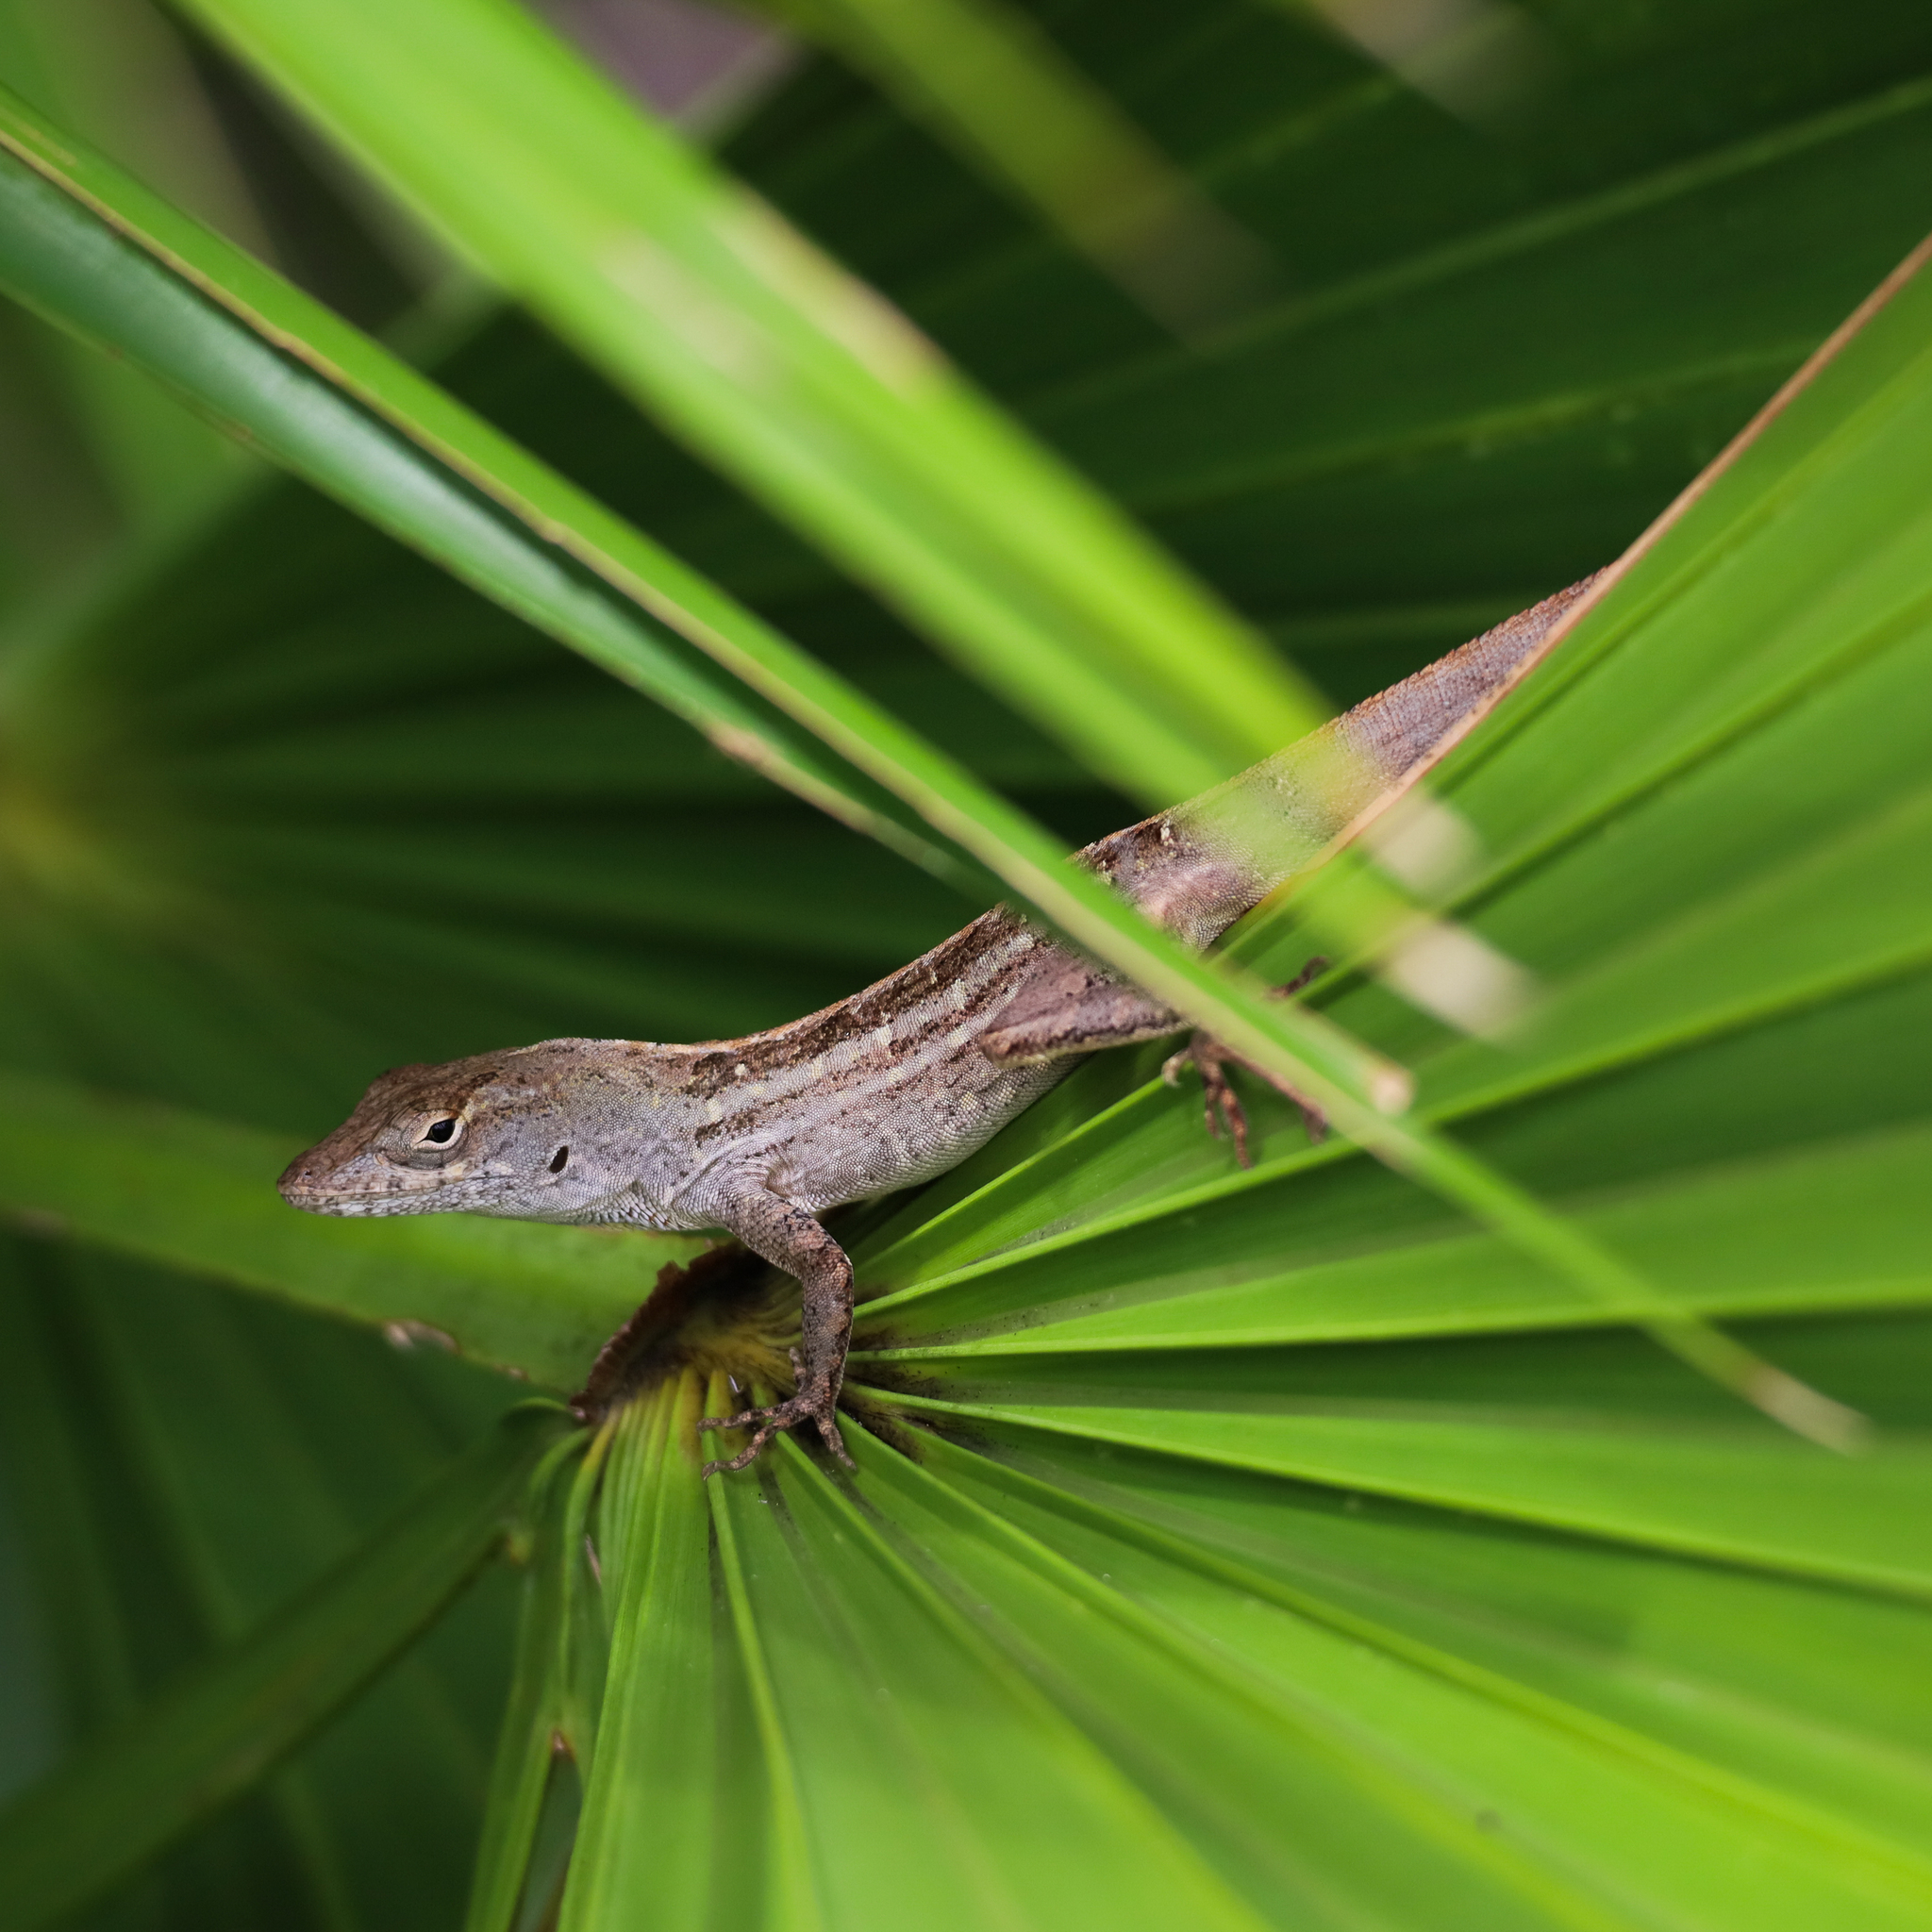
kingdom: Animalia
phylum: Chordata
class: Squamata
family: Dactyloidae
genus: Anolis
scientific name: Anolis sagrei
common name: Brown anole
